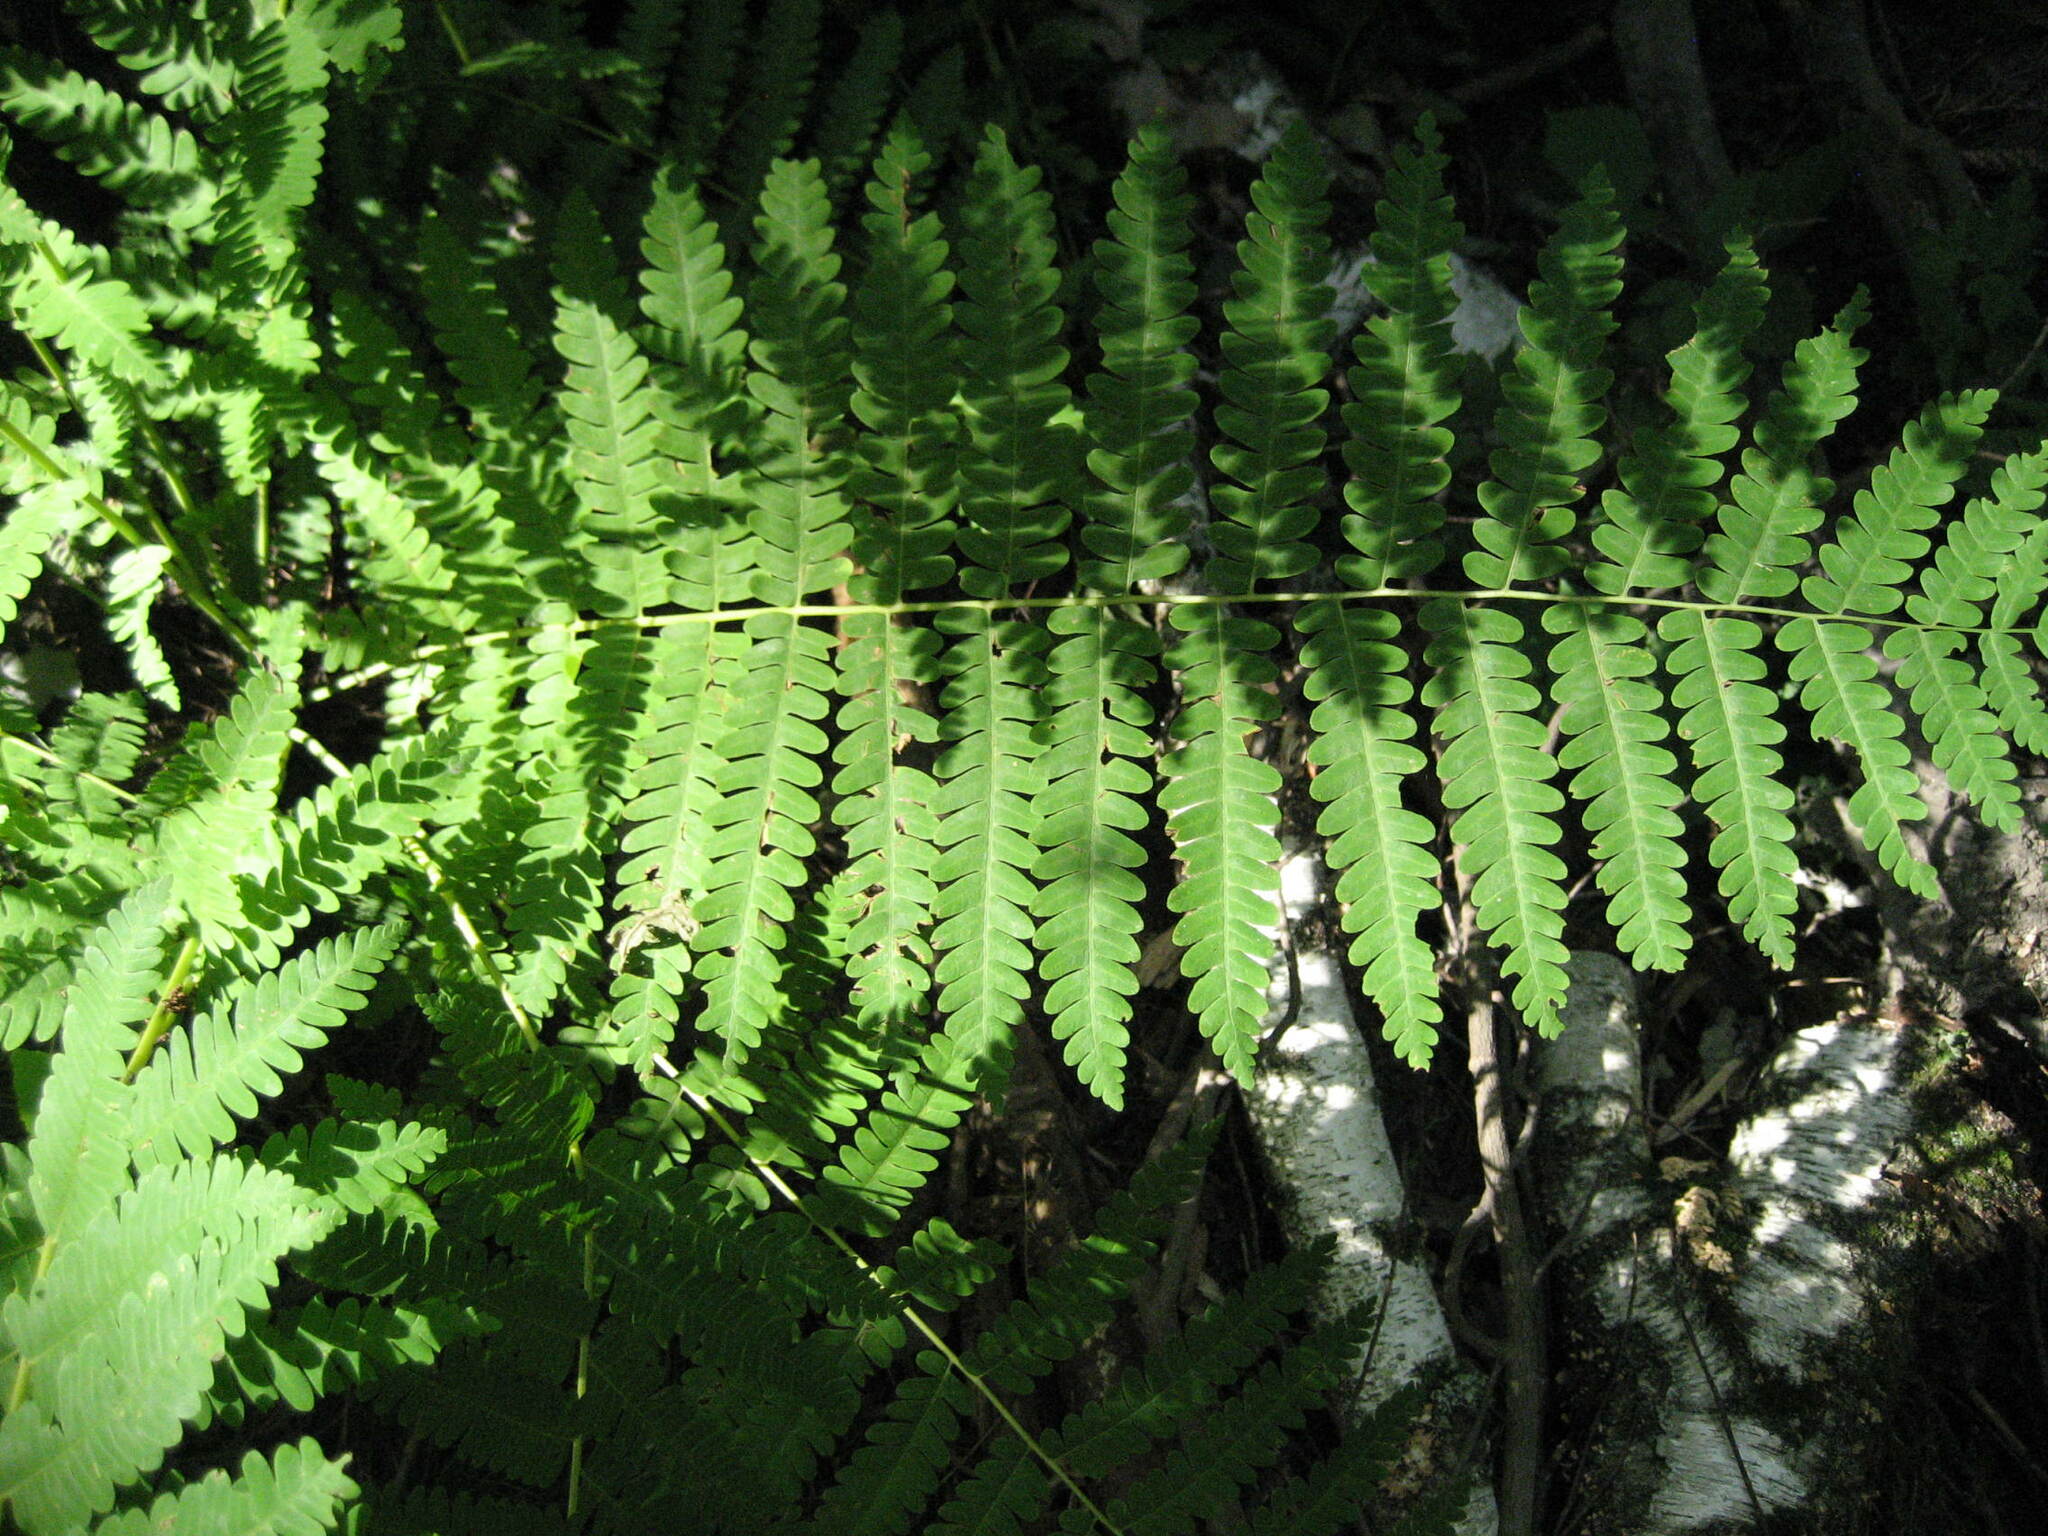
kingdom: Plantae
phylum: Tracheophyta
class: Polypodiopsida
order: Osmundales
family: Osmundaceae
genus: Claytosmunda
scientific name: Claytosmunda claytoniana
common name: Clayton's fern
